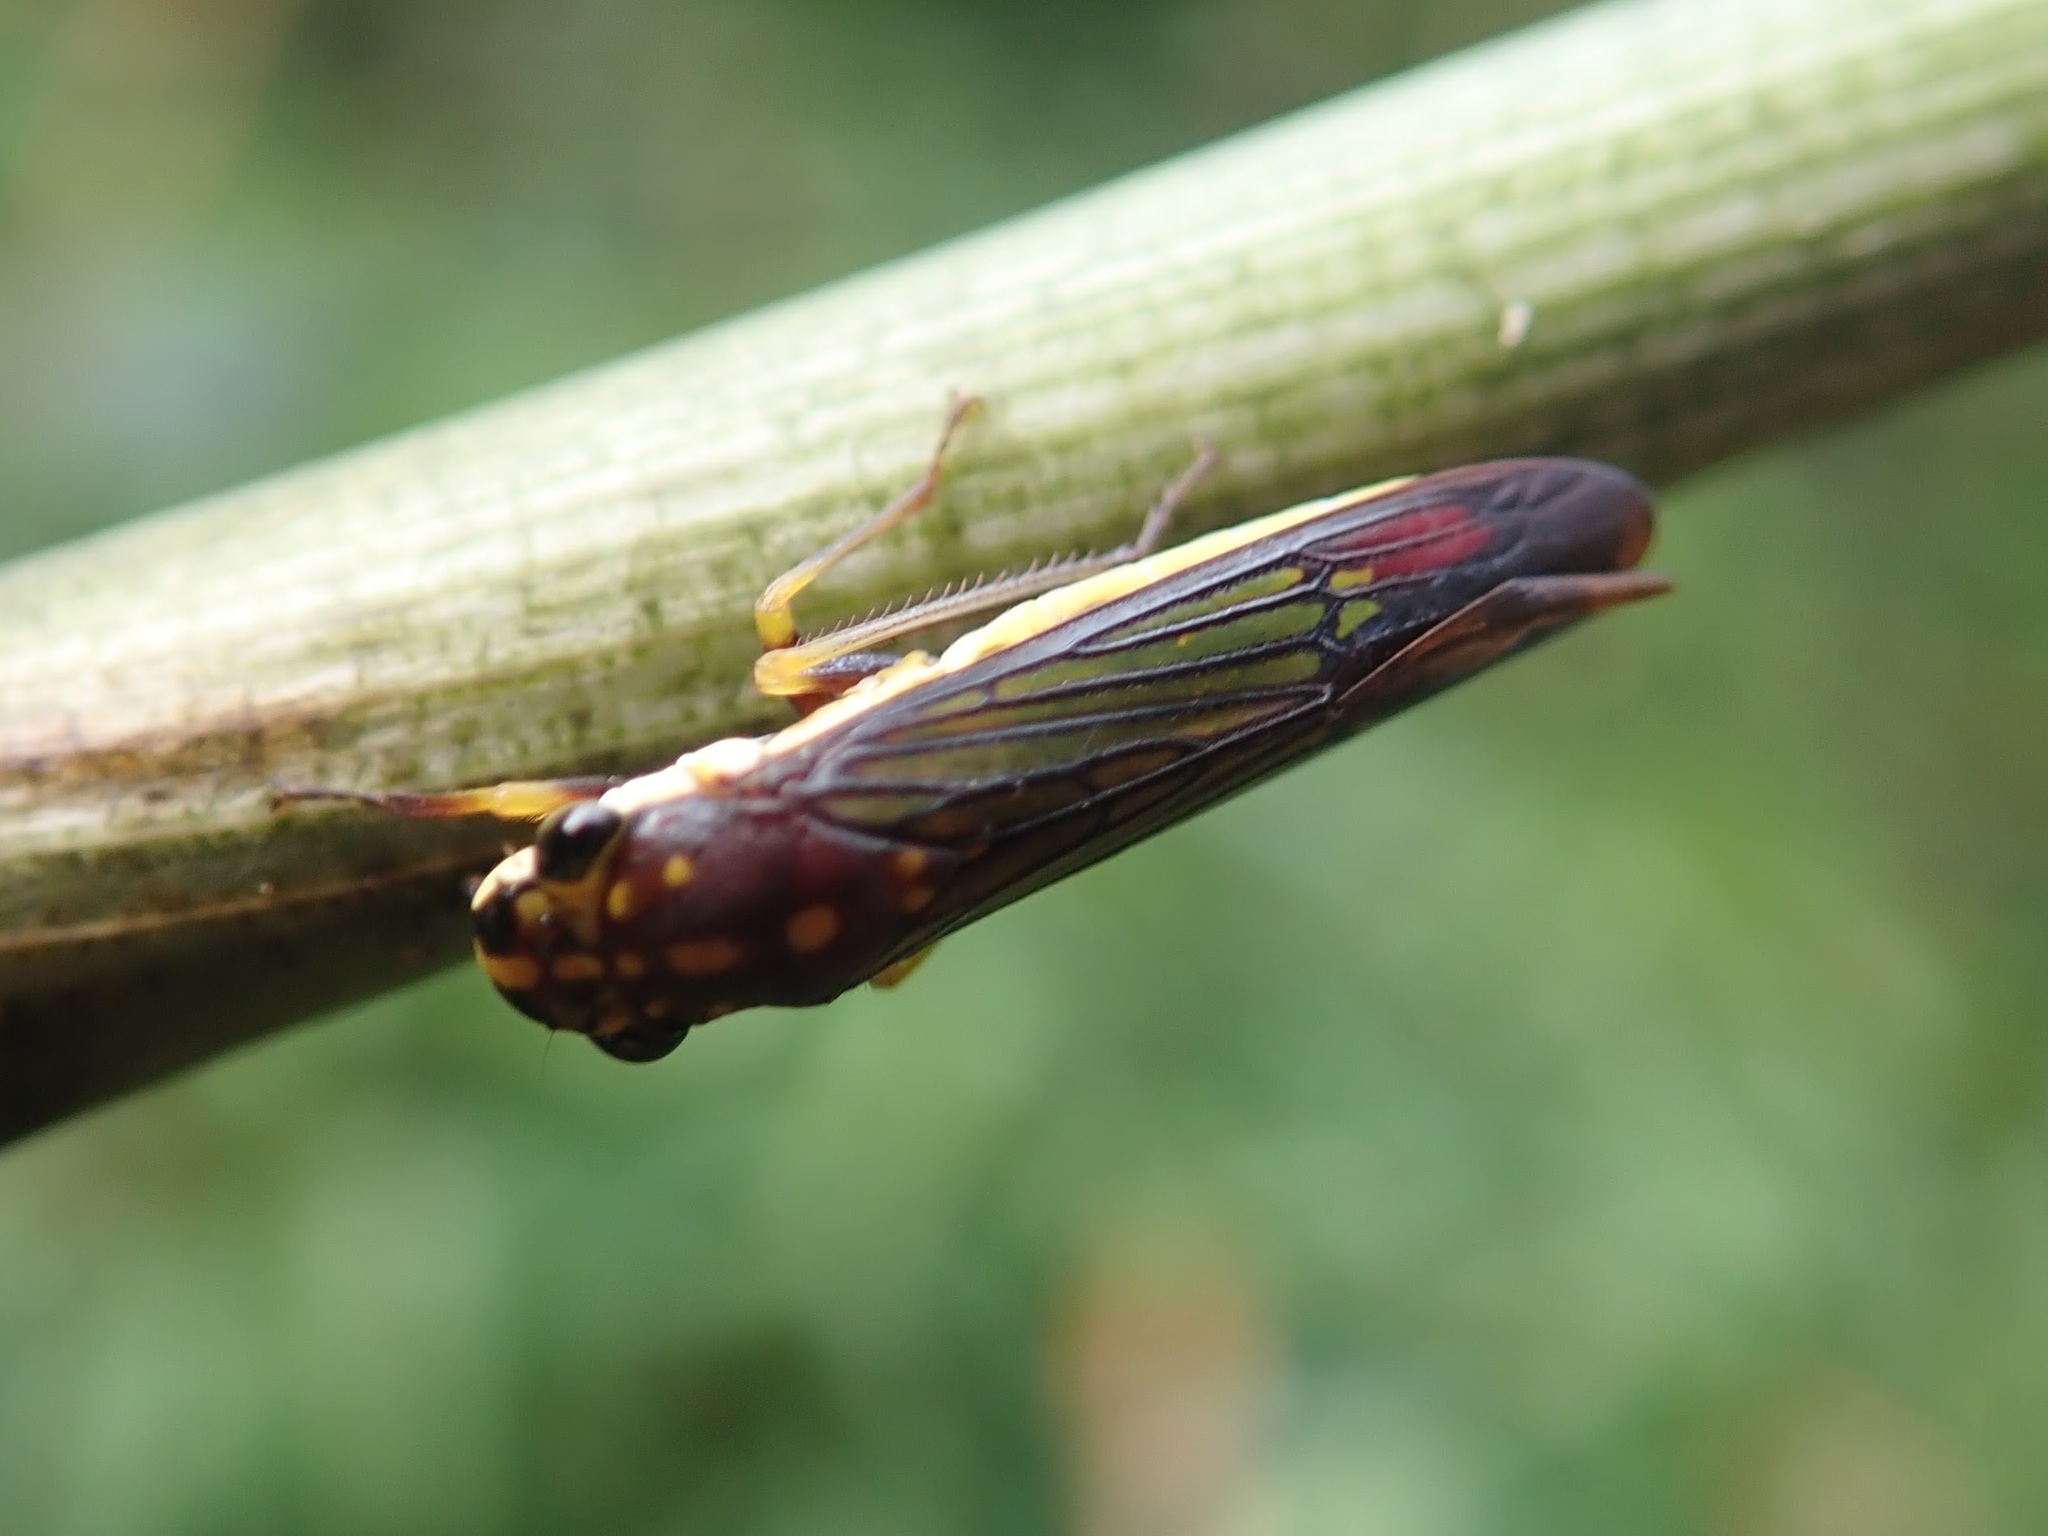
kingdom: Animalia
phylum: Arthropoda
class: Insecta
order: Hemiptera
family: Cicadellidae
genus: Egidemia
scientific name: Egidemia speculifera
